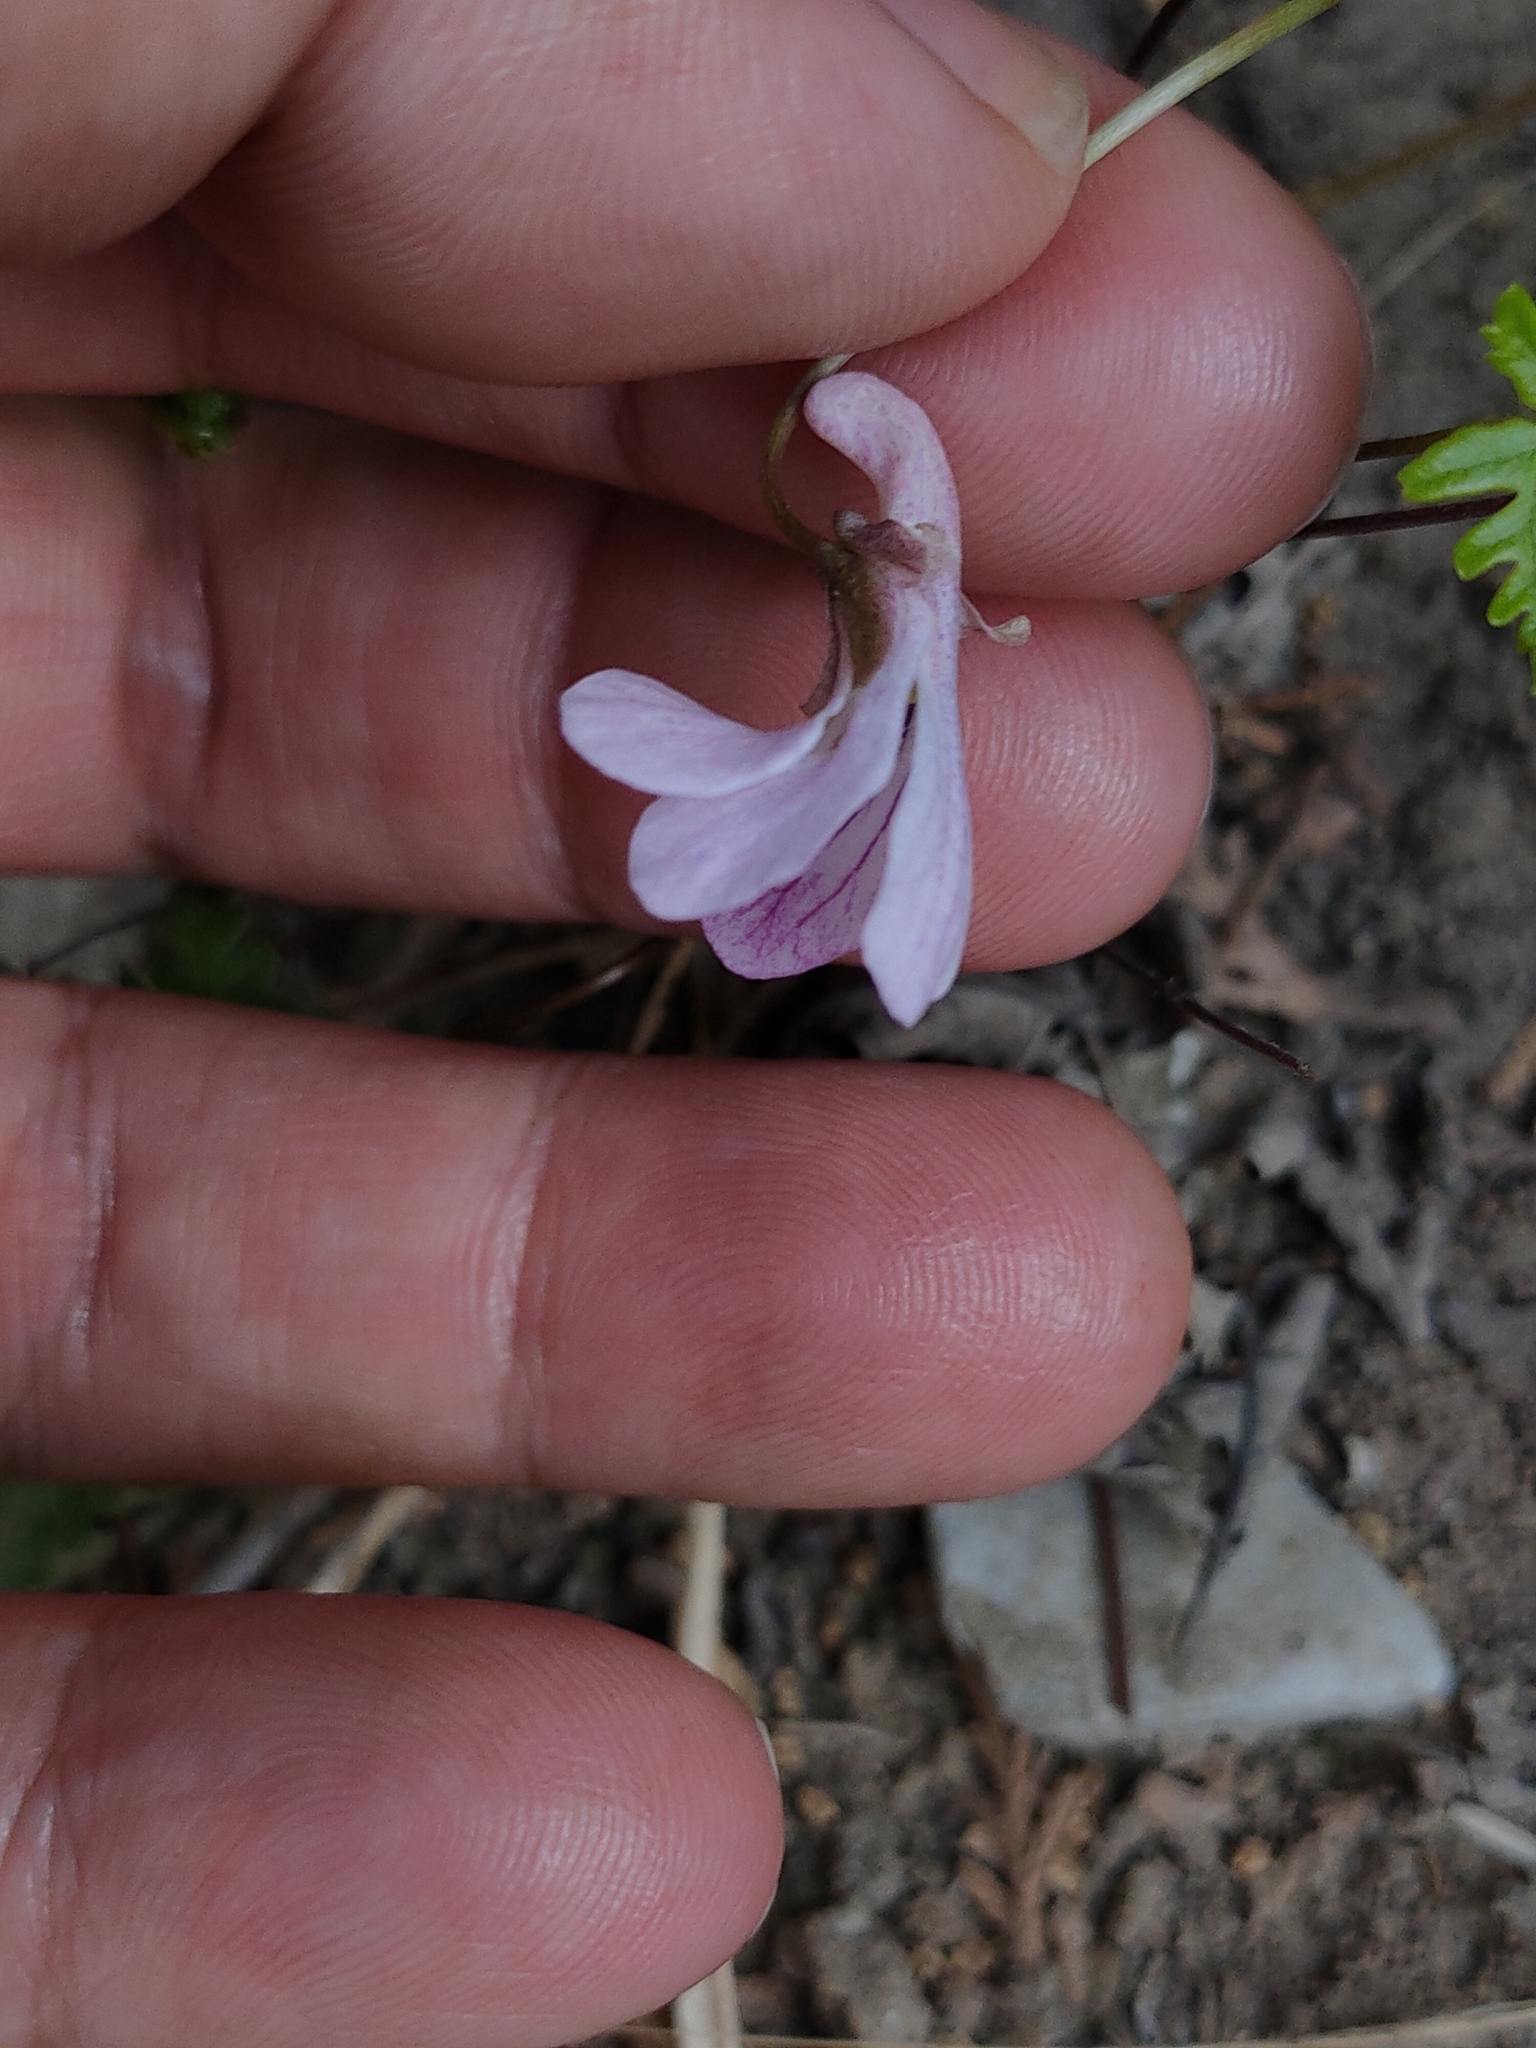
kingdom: Plantae
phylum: Tracheophyta
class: Magnoliopsida
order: Malpighiales
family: Violaceae
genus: Viola
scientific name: Viola multifida
